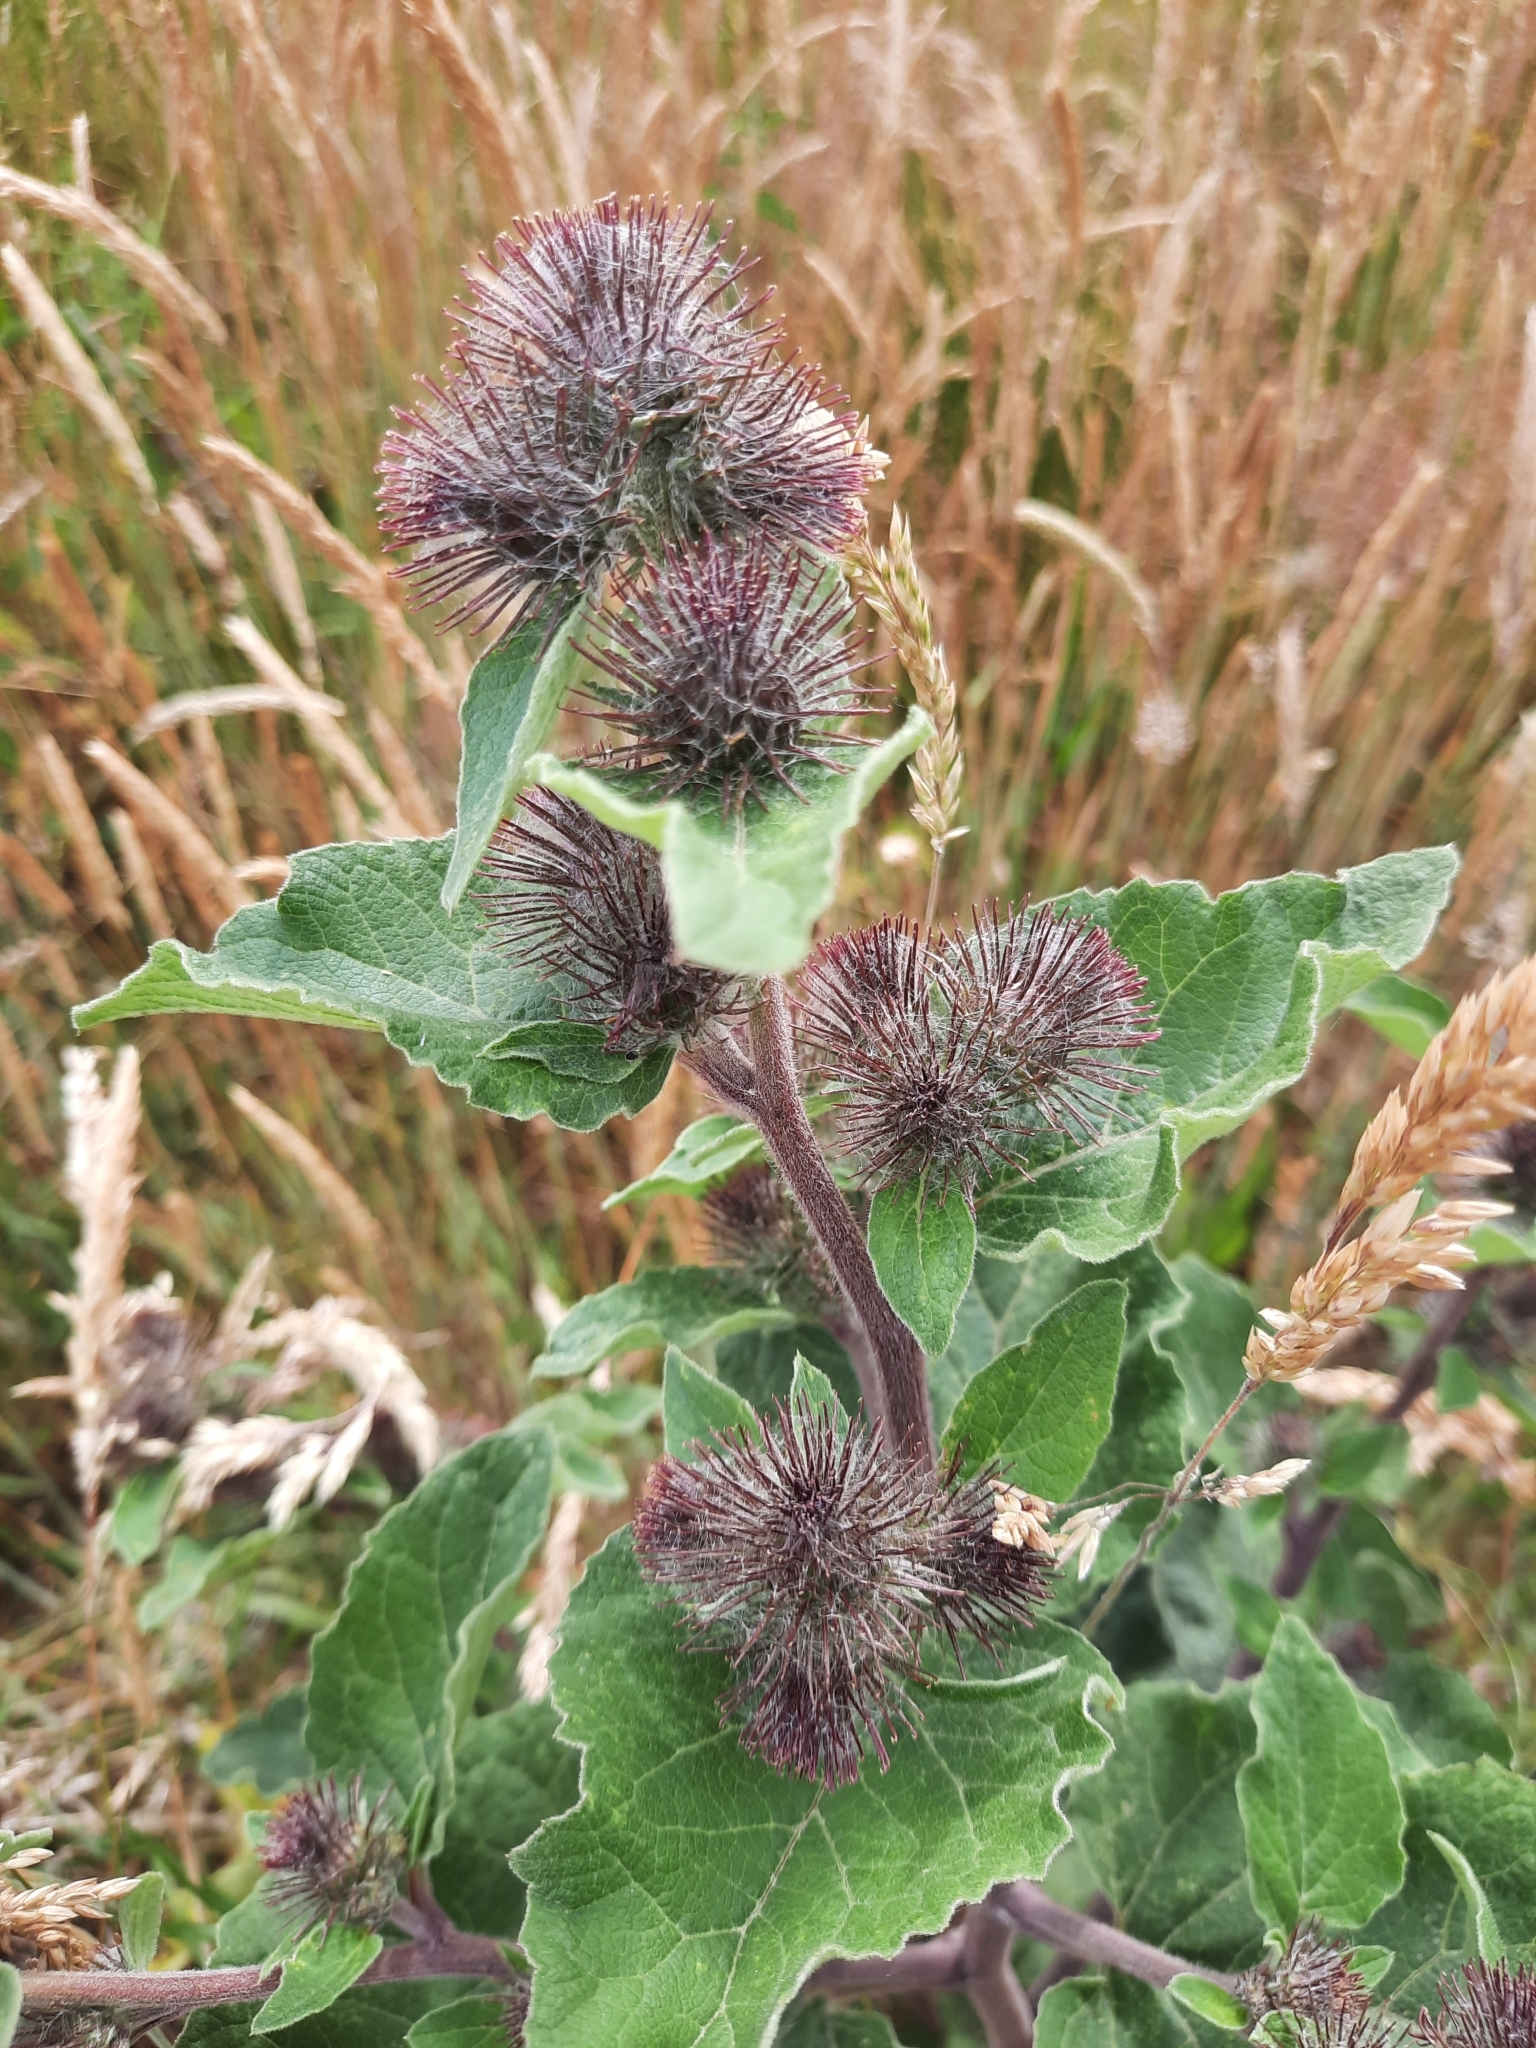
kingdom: Plantae
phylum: Tracheophyta
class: Magnoliopsida
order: Asterales
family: Asteraceae
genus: Arctium
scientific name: Arctium minus
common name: Lesser burdock
